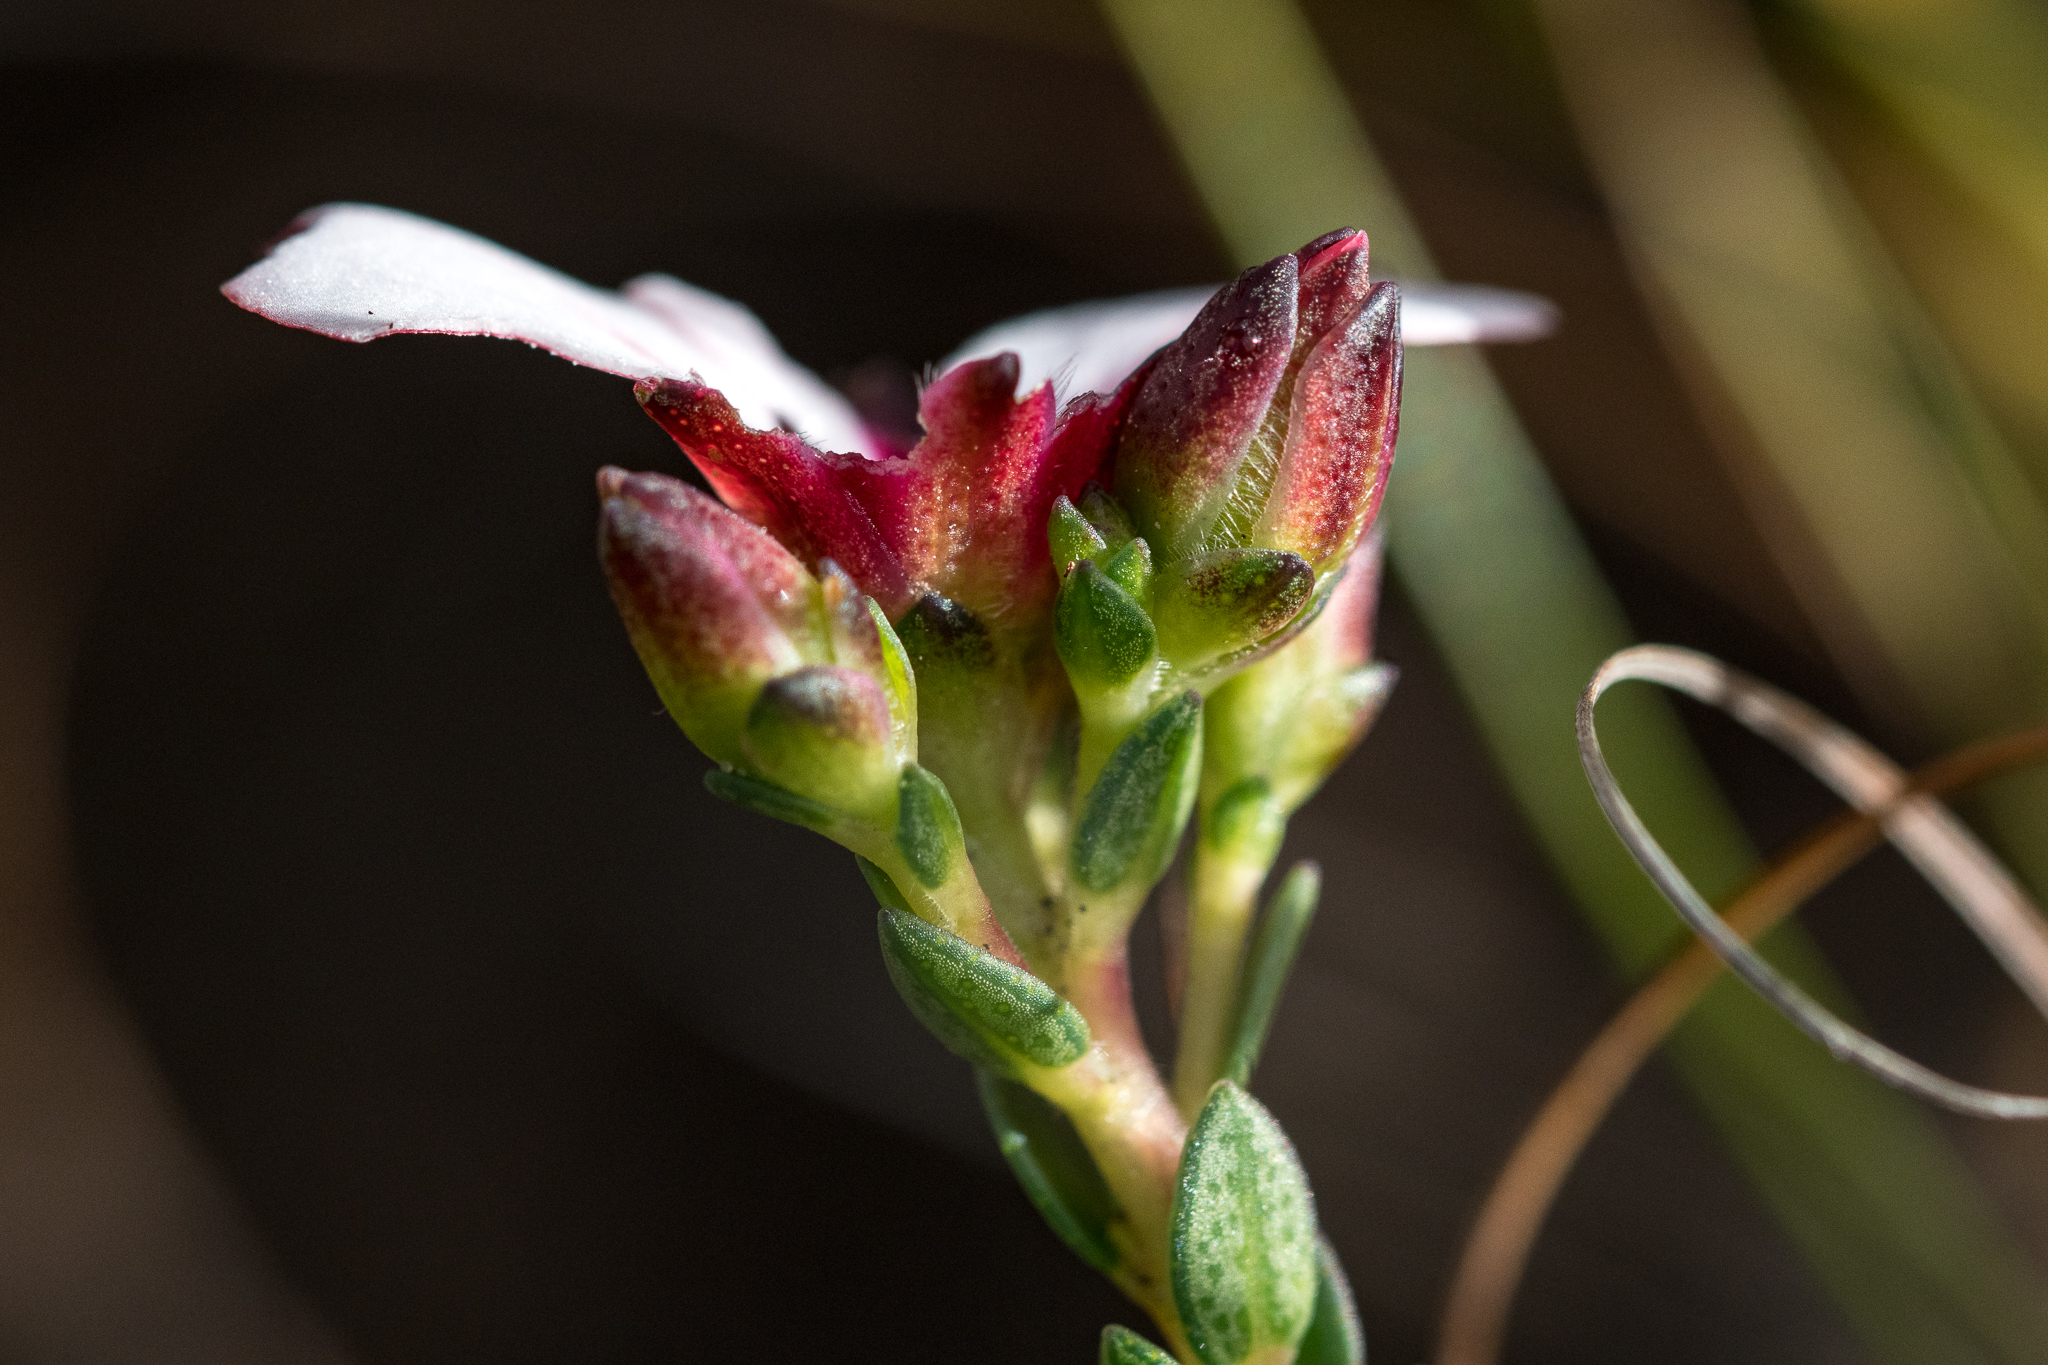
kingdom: Plantae
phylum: Tracheophyta
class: Magnoliopsida
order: Sapindales
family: Rutaceae
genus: Adenandra
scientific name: Adenandra villosa
